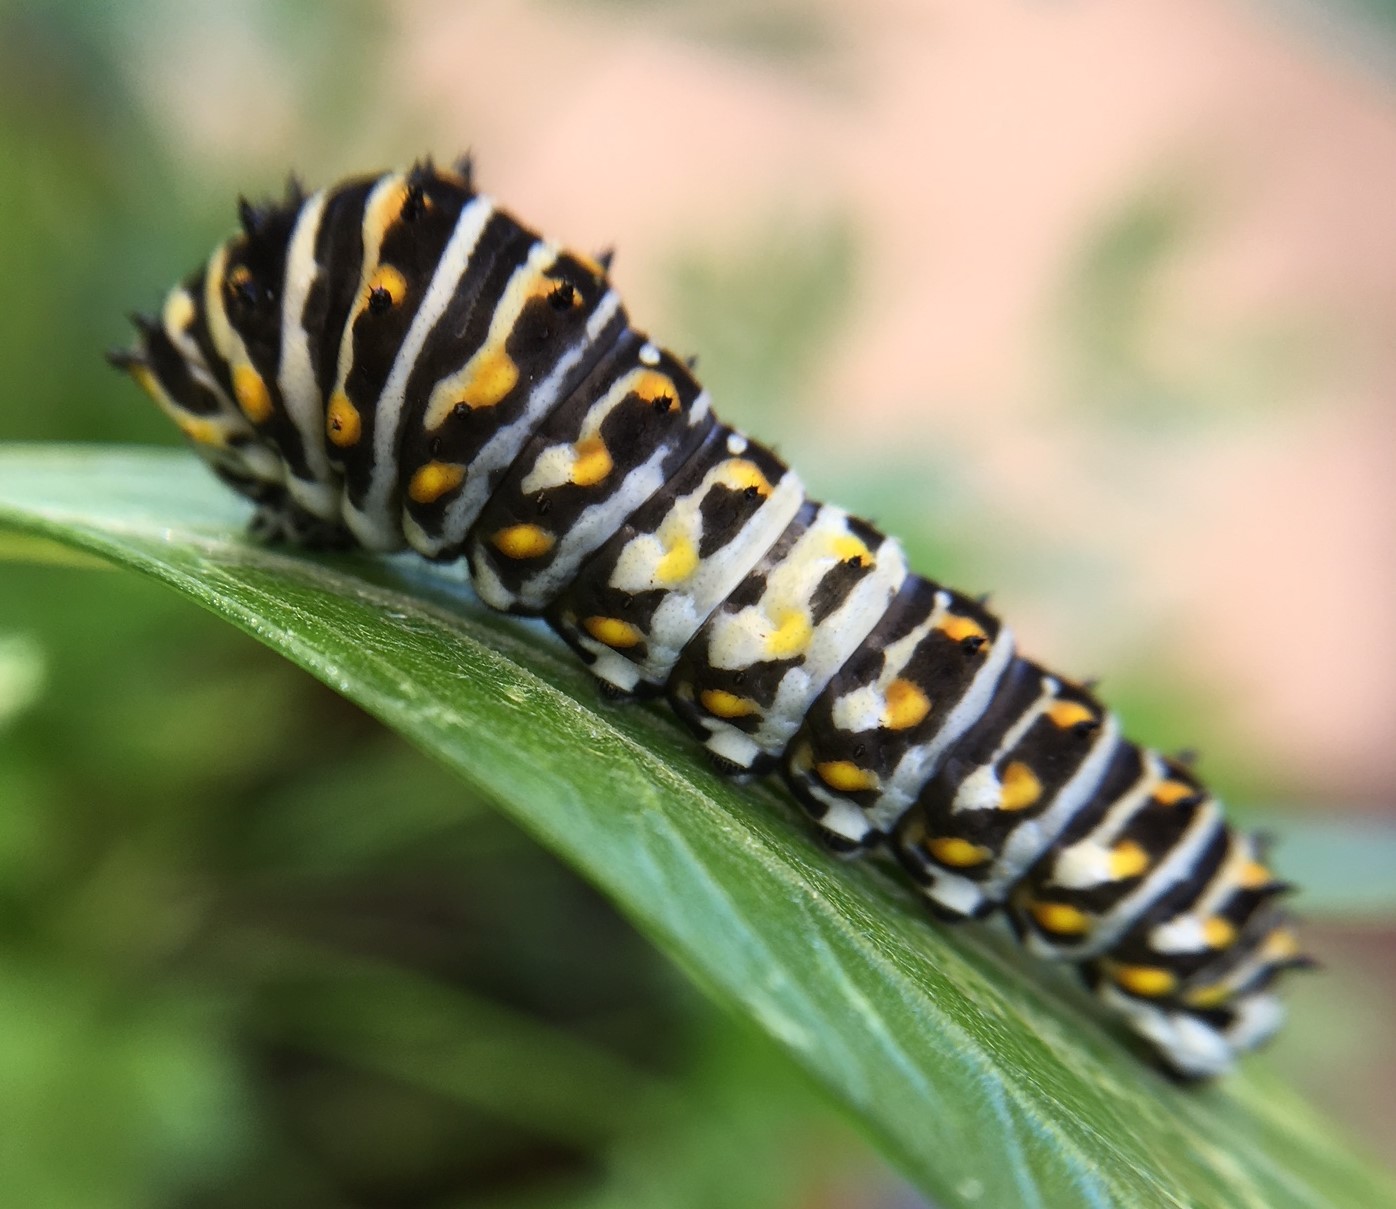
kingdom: Animalia
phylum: Arthropoda
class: Insecta
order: Lepidoptera
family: Papilionidae
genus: Papilio
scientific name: Papilio polyxenes
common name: Black swallowtail
